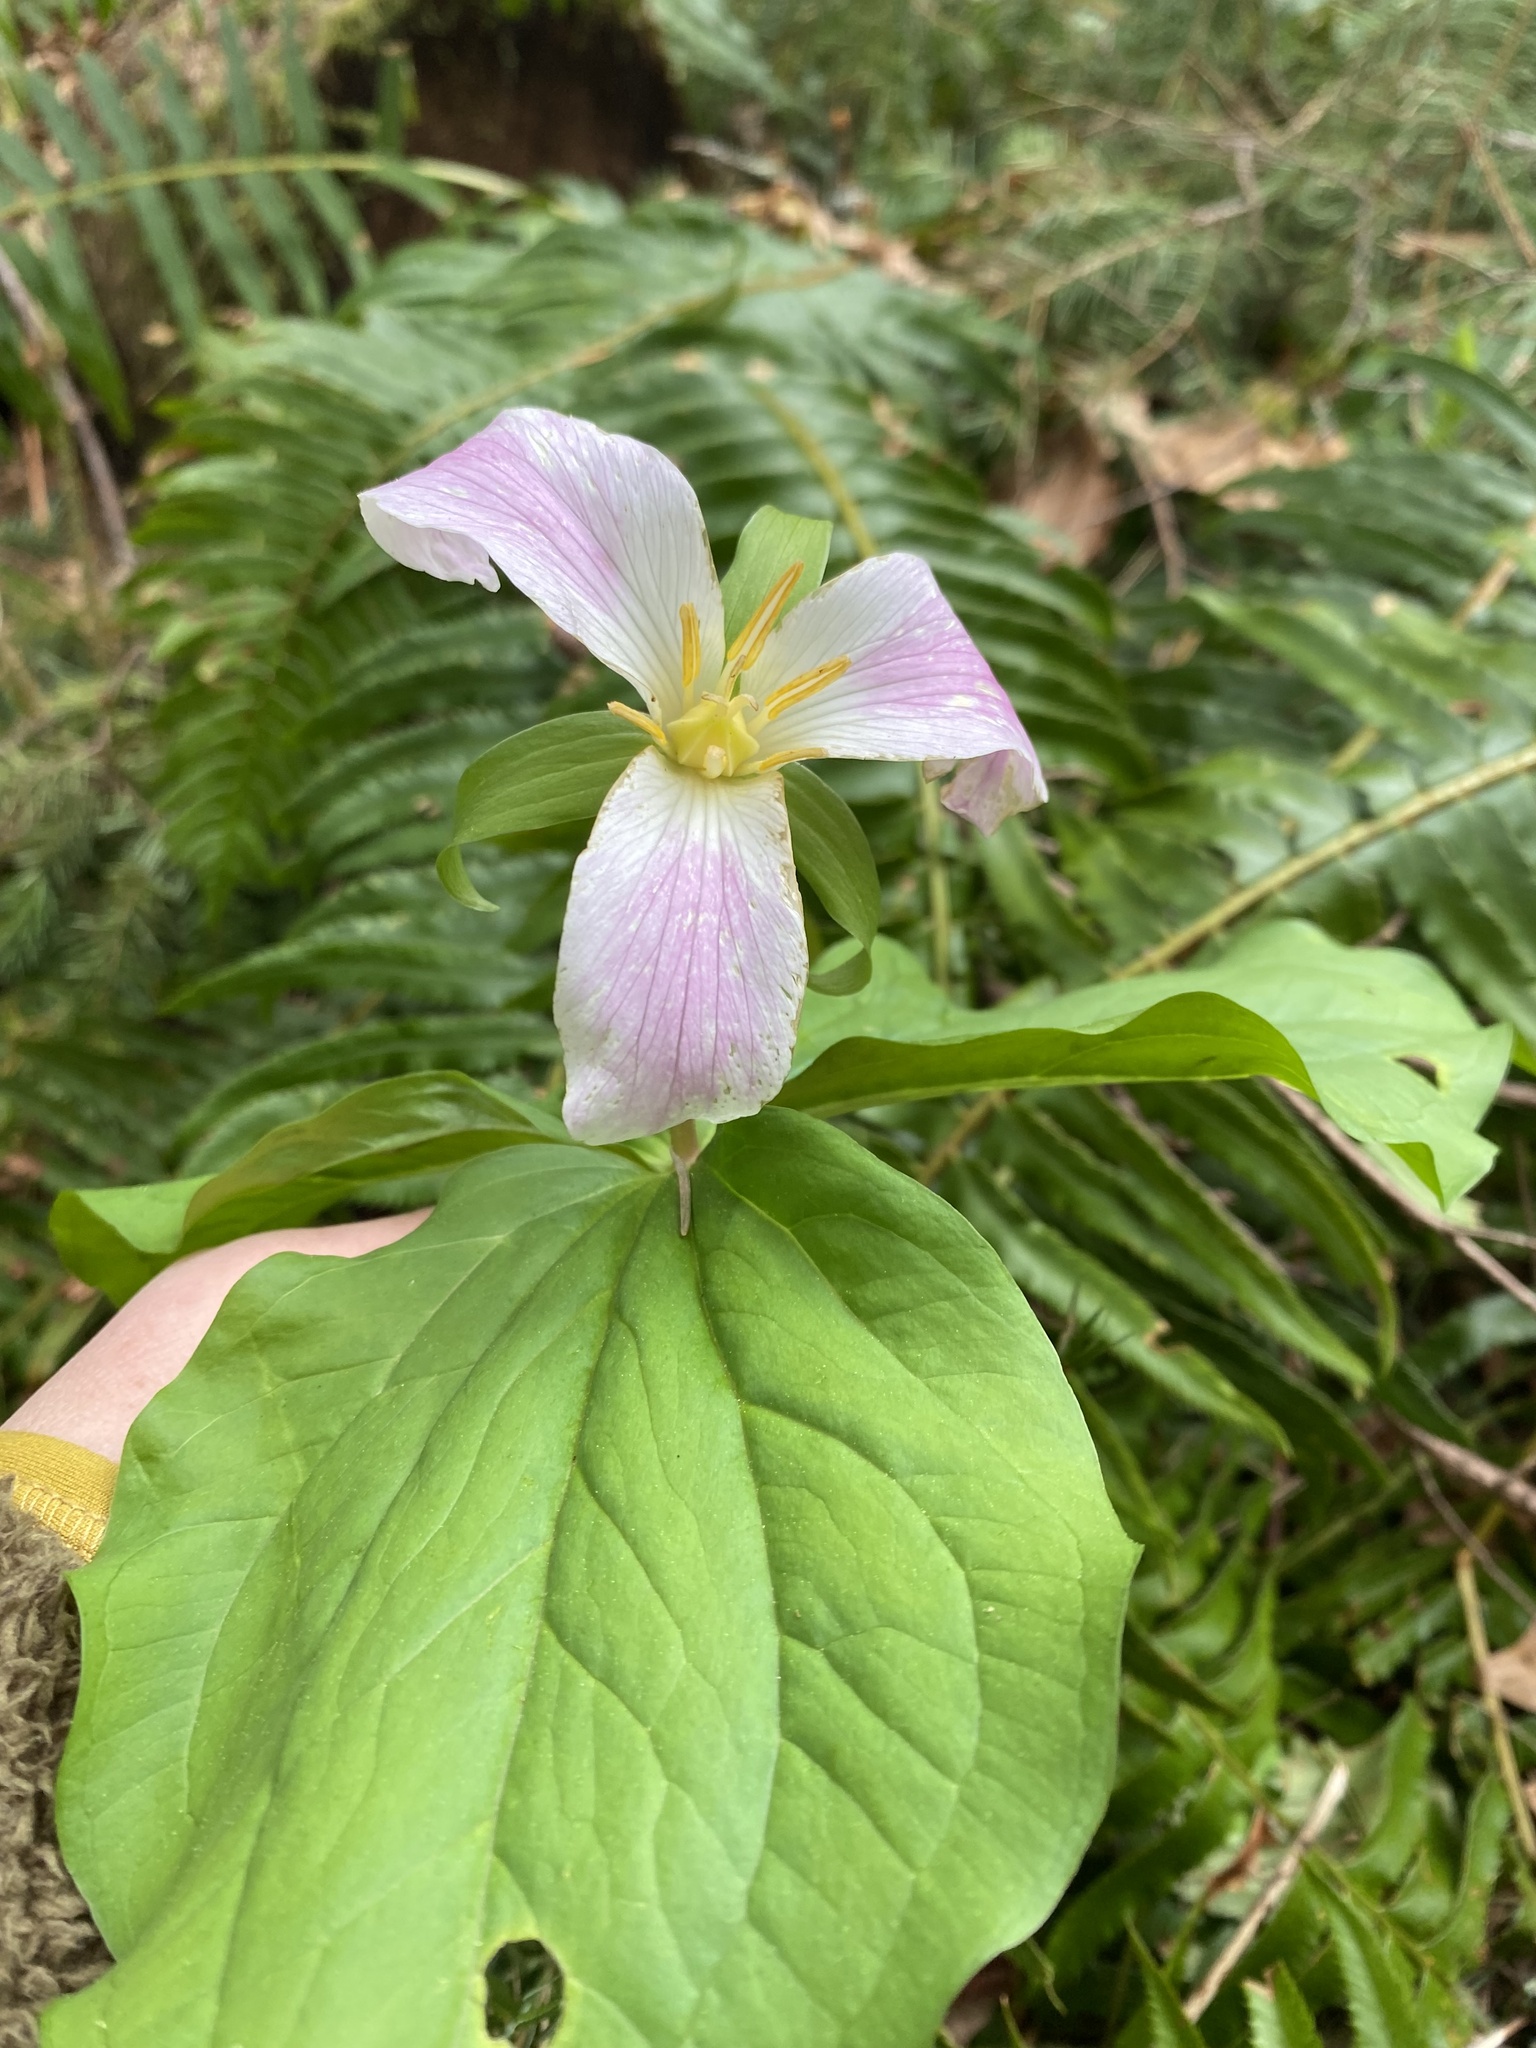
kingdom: Plantae
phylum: Tracheophyta
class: Liliopsida
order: Liliales
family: Melanthiaceae
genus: Trillium
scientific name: Trillium ovatum
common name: Pacific trillium
